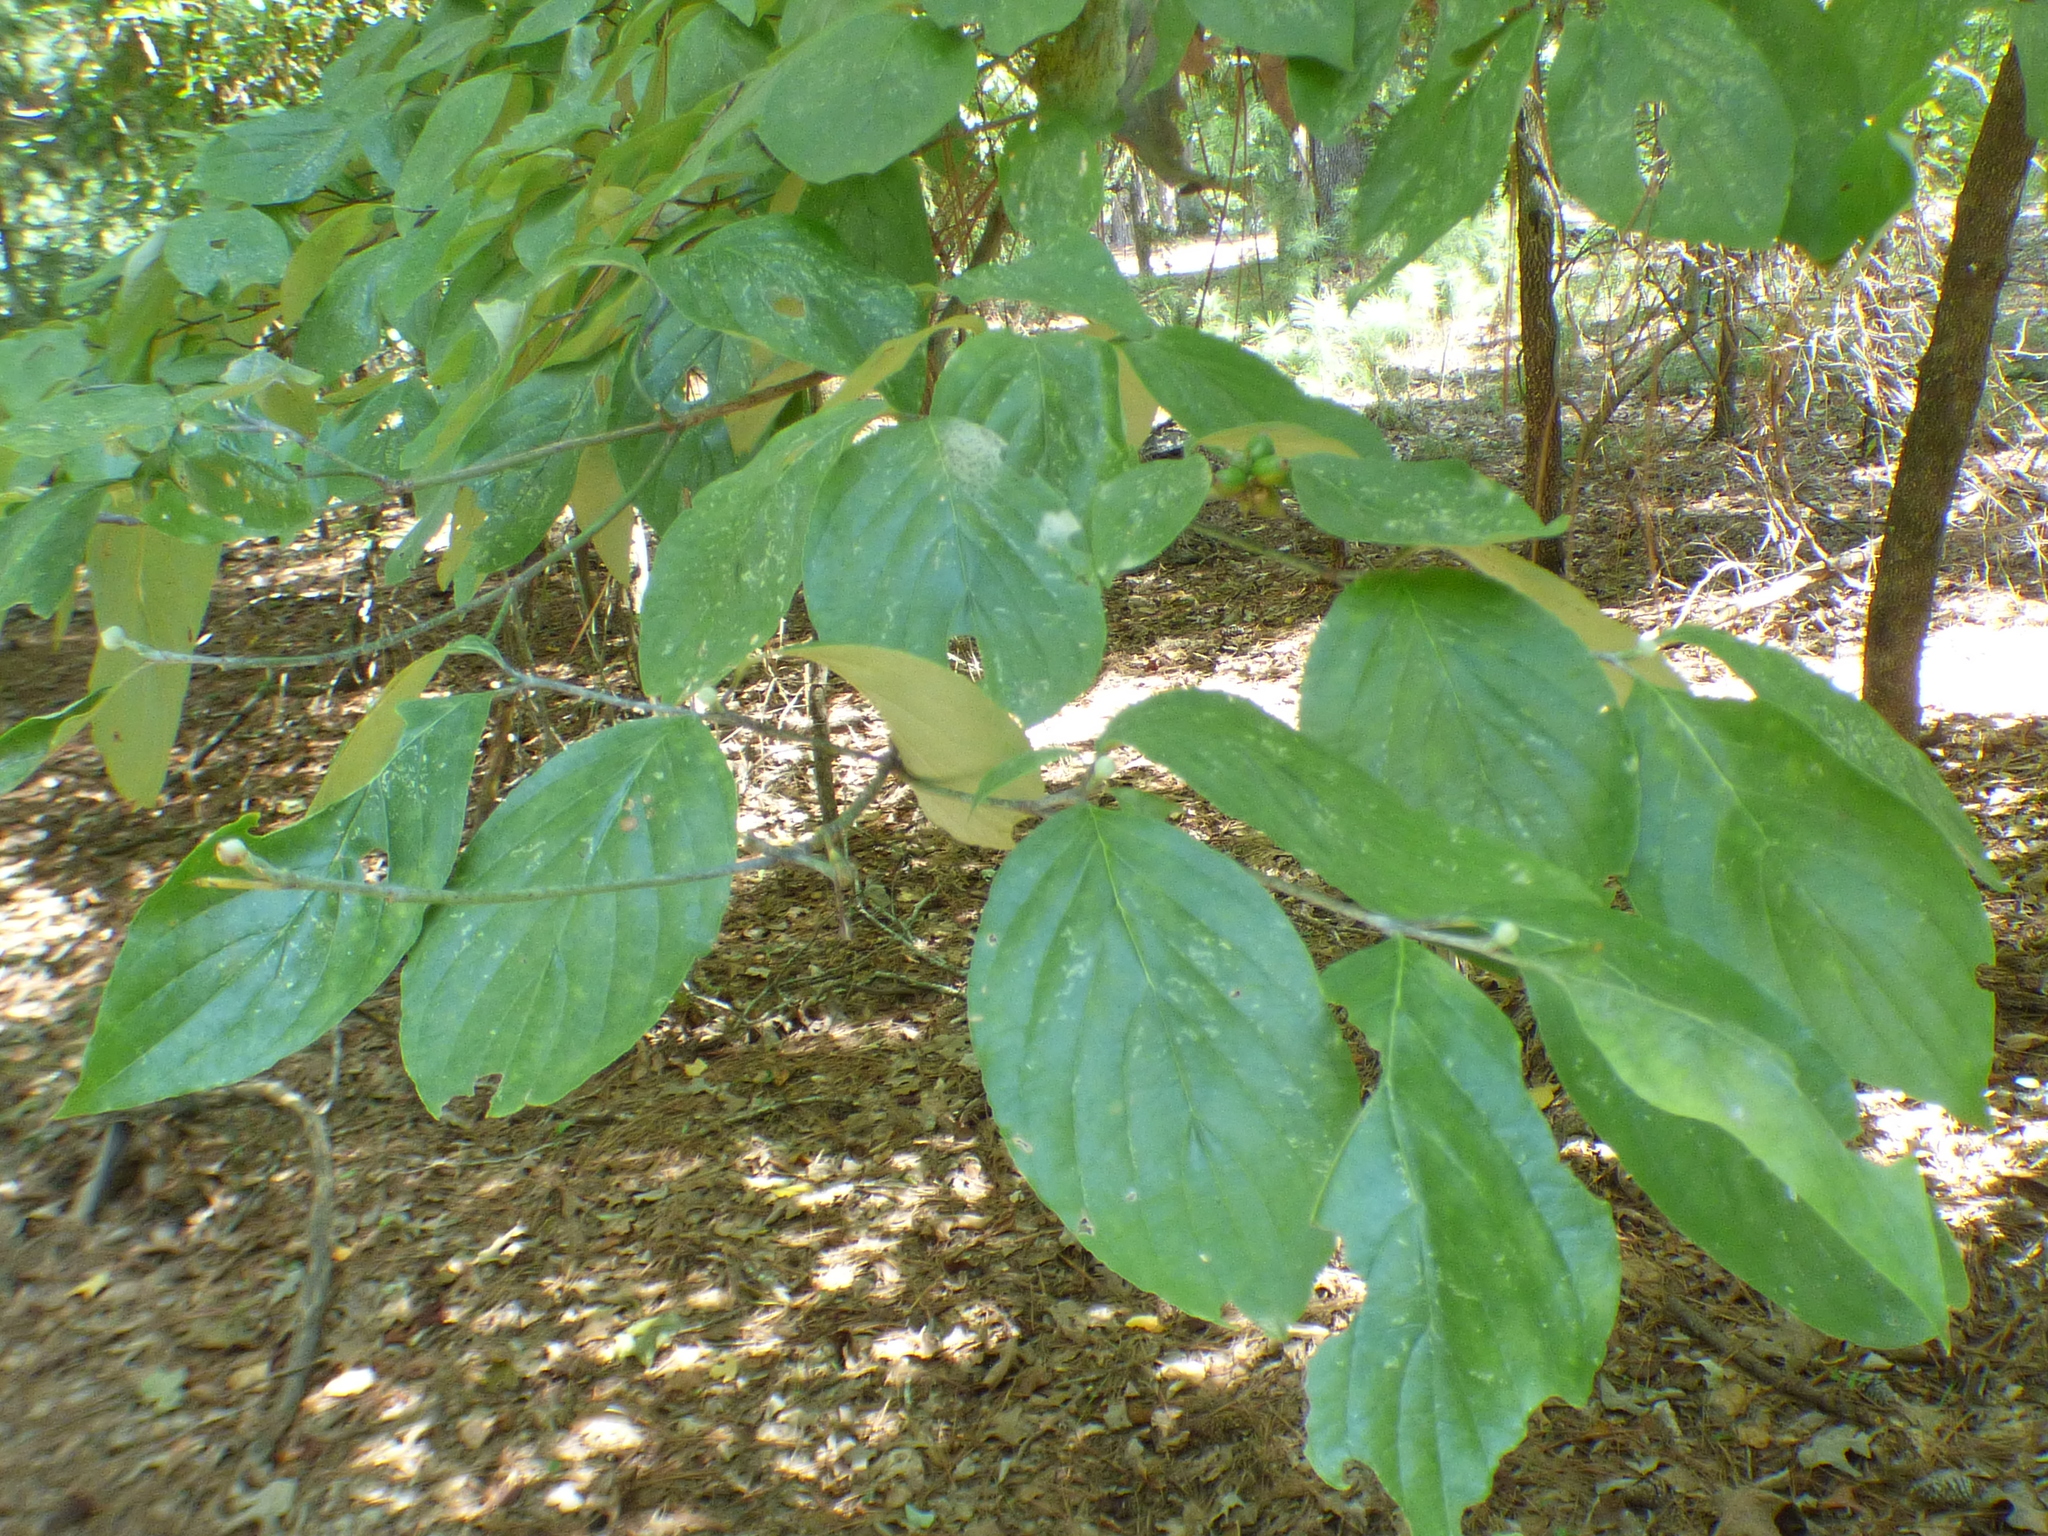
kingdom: Plantae
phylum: Tracheophyta
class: Magnoliopsida
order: Cornales
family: Cornaceae
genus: Cornus
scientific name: Cornus florida
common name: Flowering dogwood
